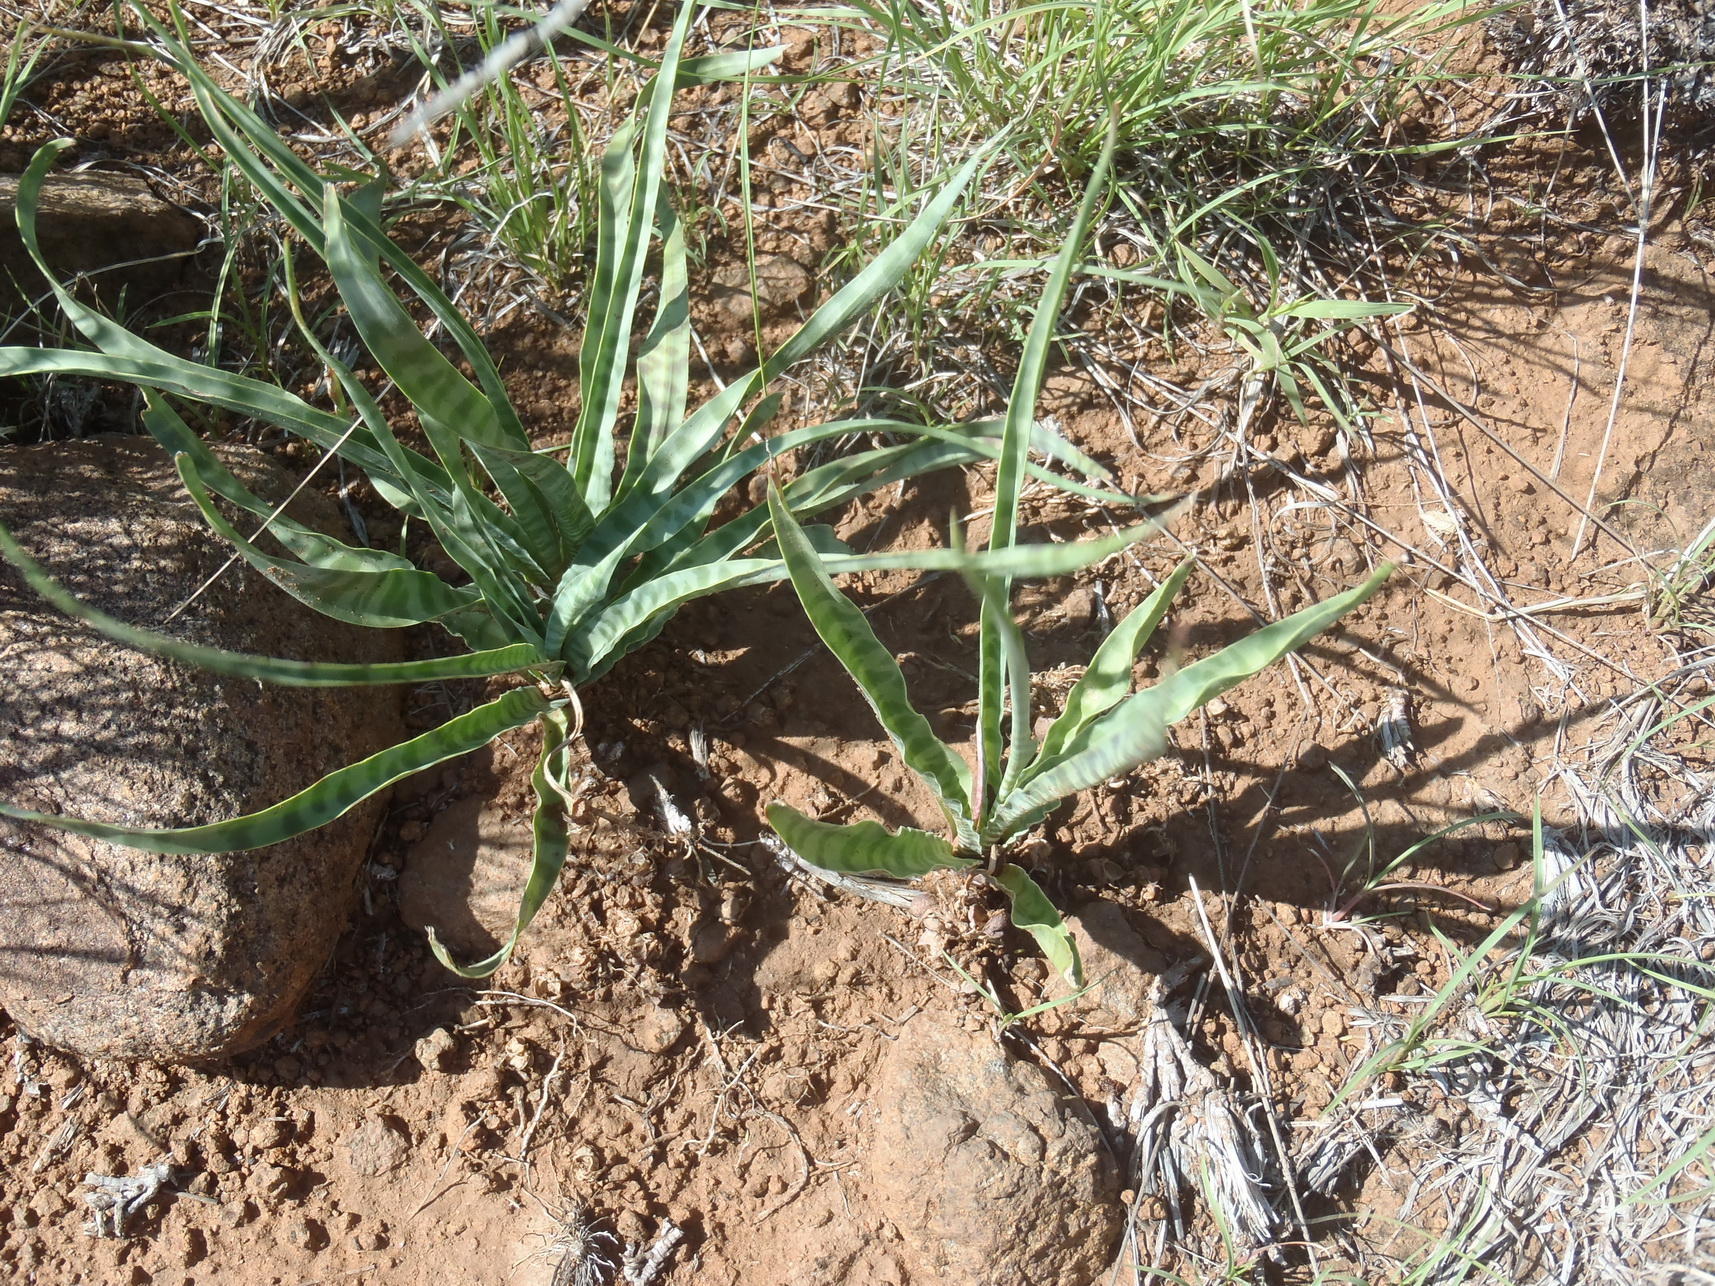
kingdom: Plantae
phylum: Tracheophyta
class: Liliopsida
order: Asparagales
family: Asparagaceae
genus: Ledebouria
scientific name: Ledebouria marginata
